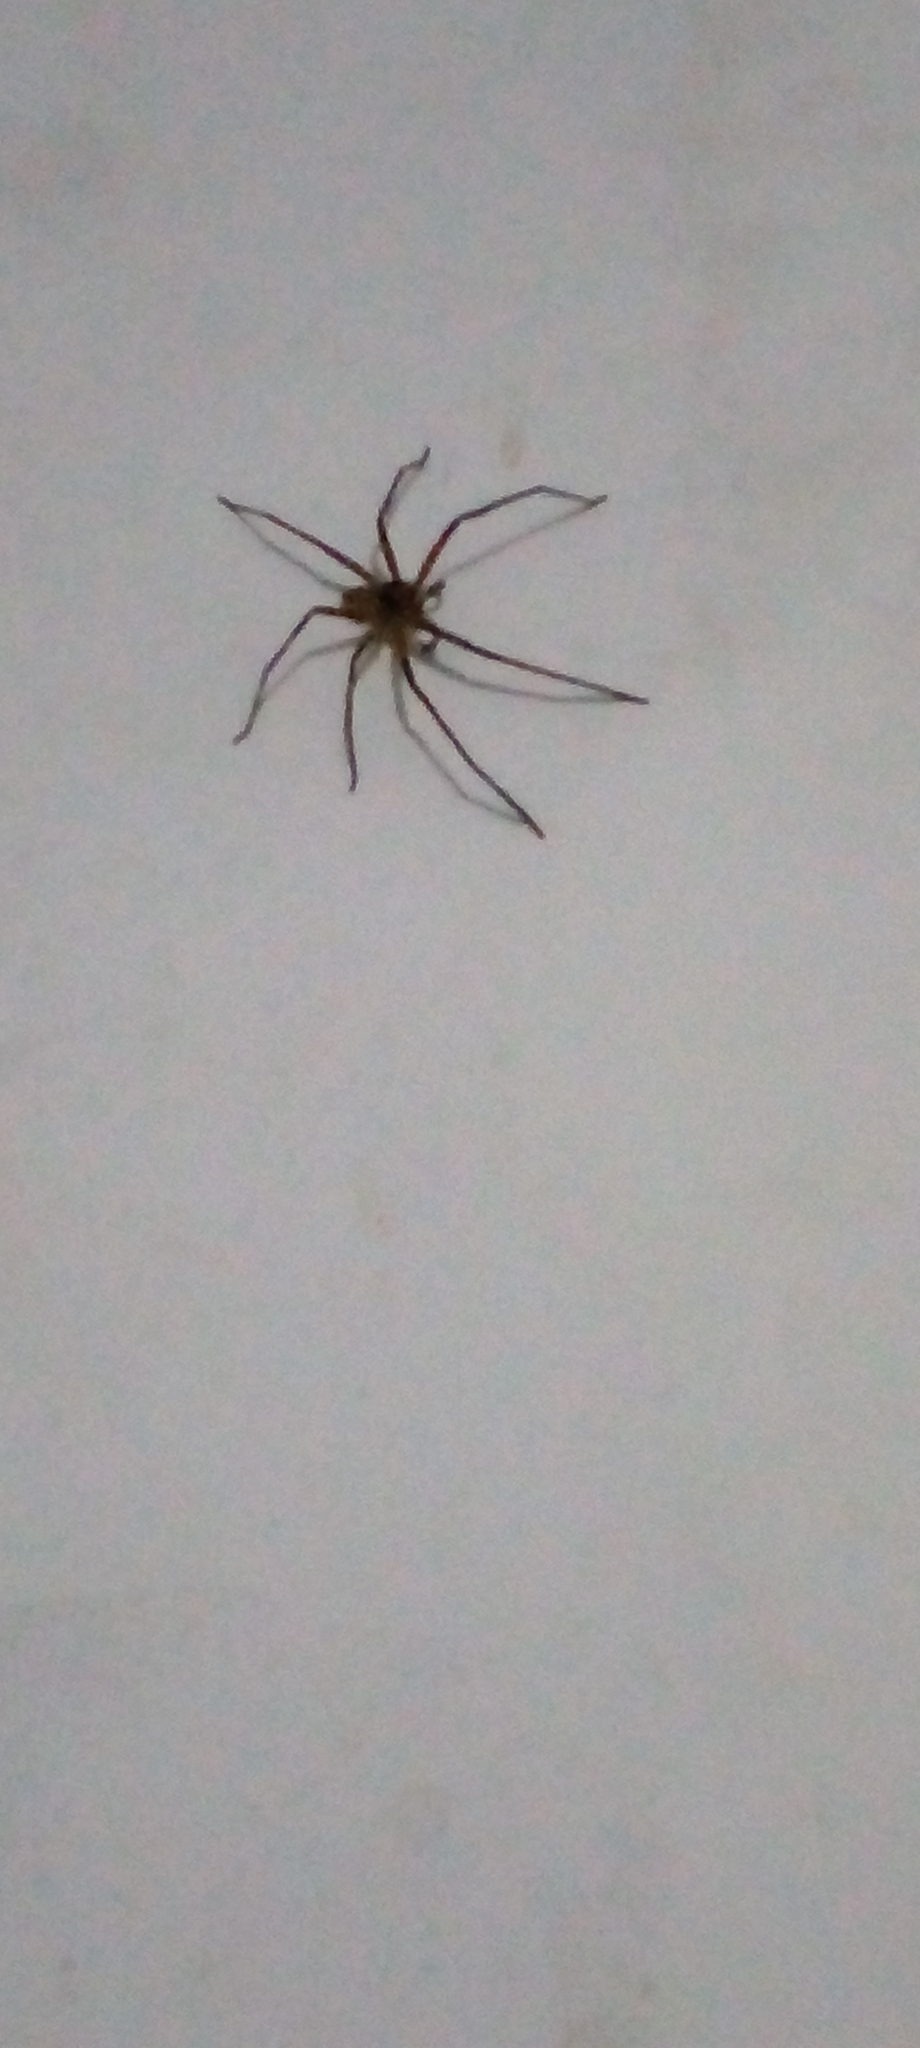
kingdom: Animalia
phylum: Arthropoda
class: Arachnida
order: Araneae
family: Sparassidae
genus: Heteropoda
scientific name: Heteropoda venatoria
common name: Huntsman spider
